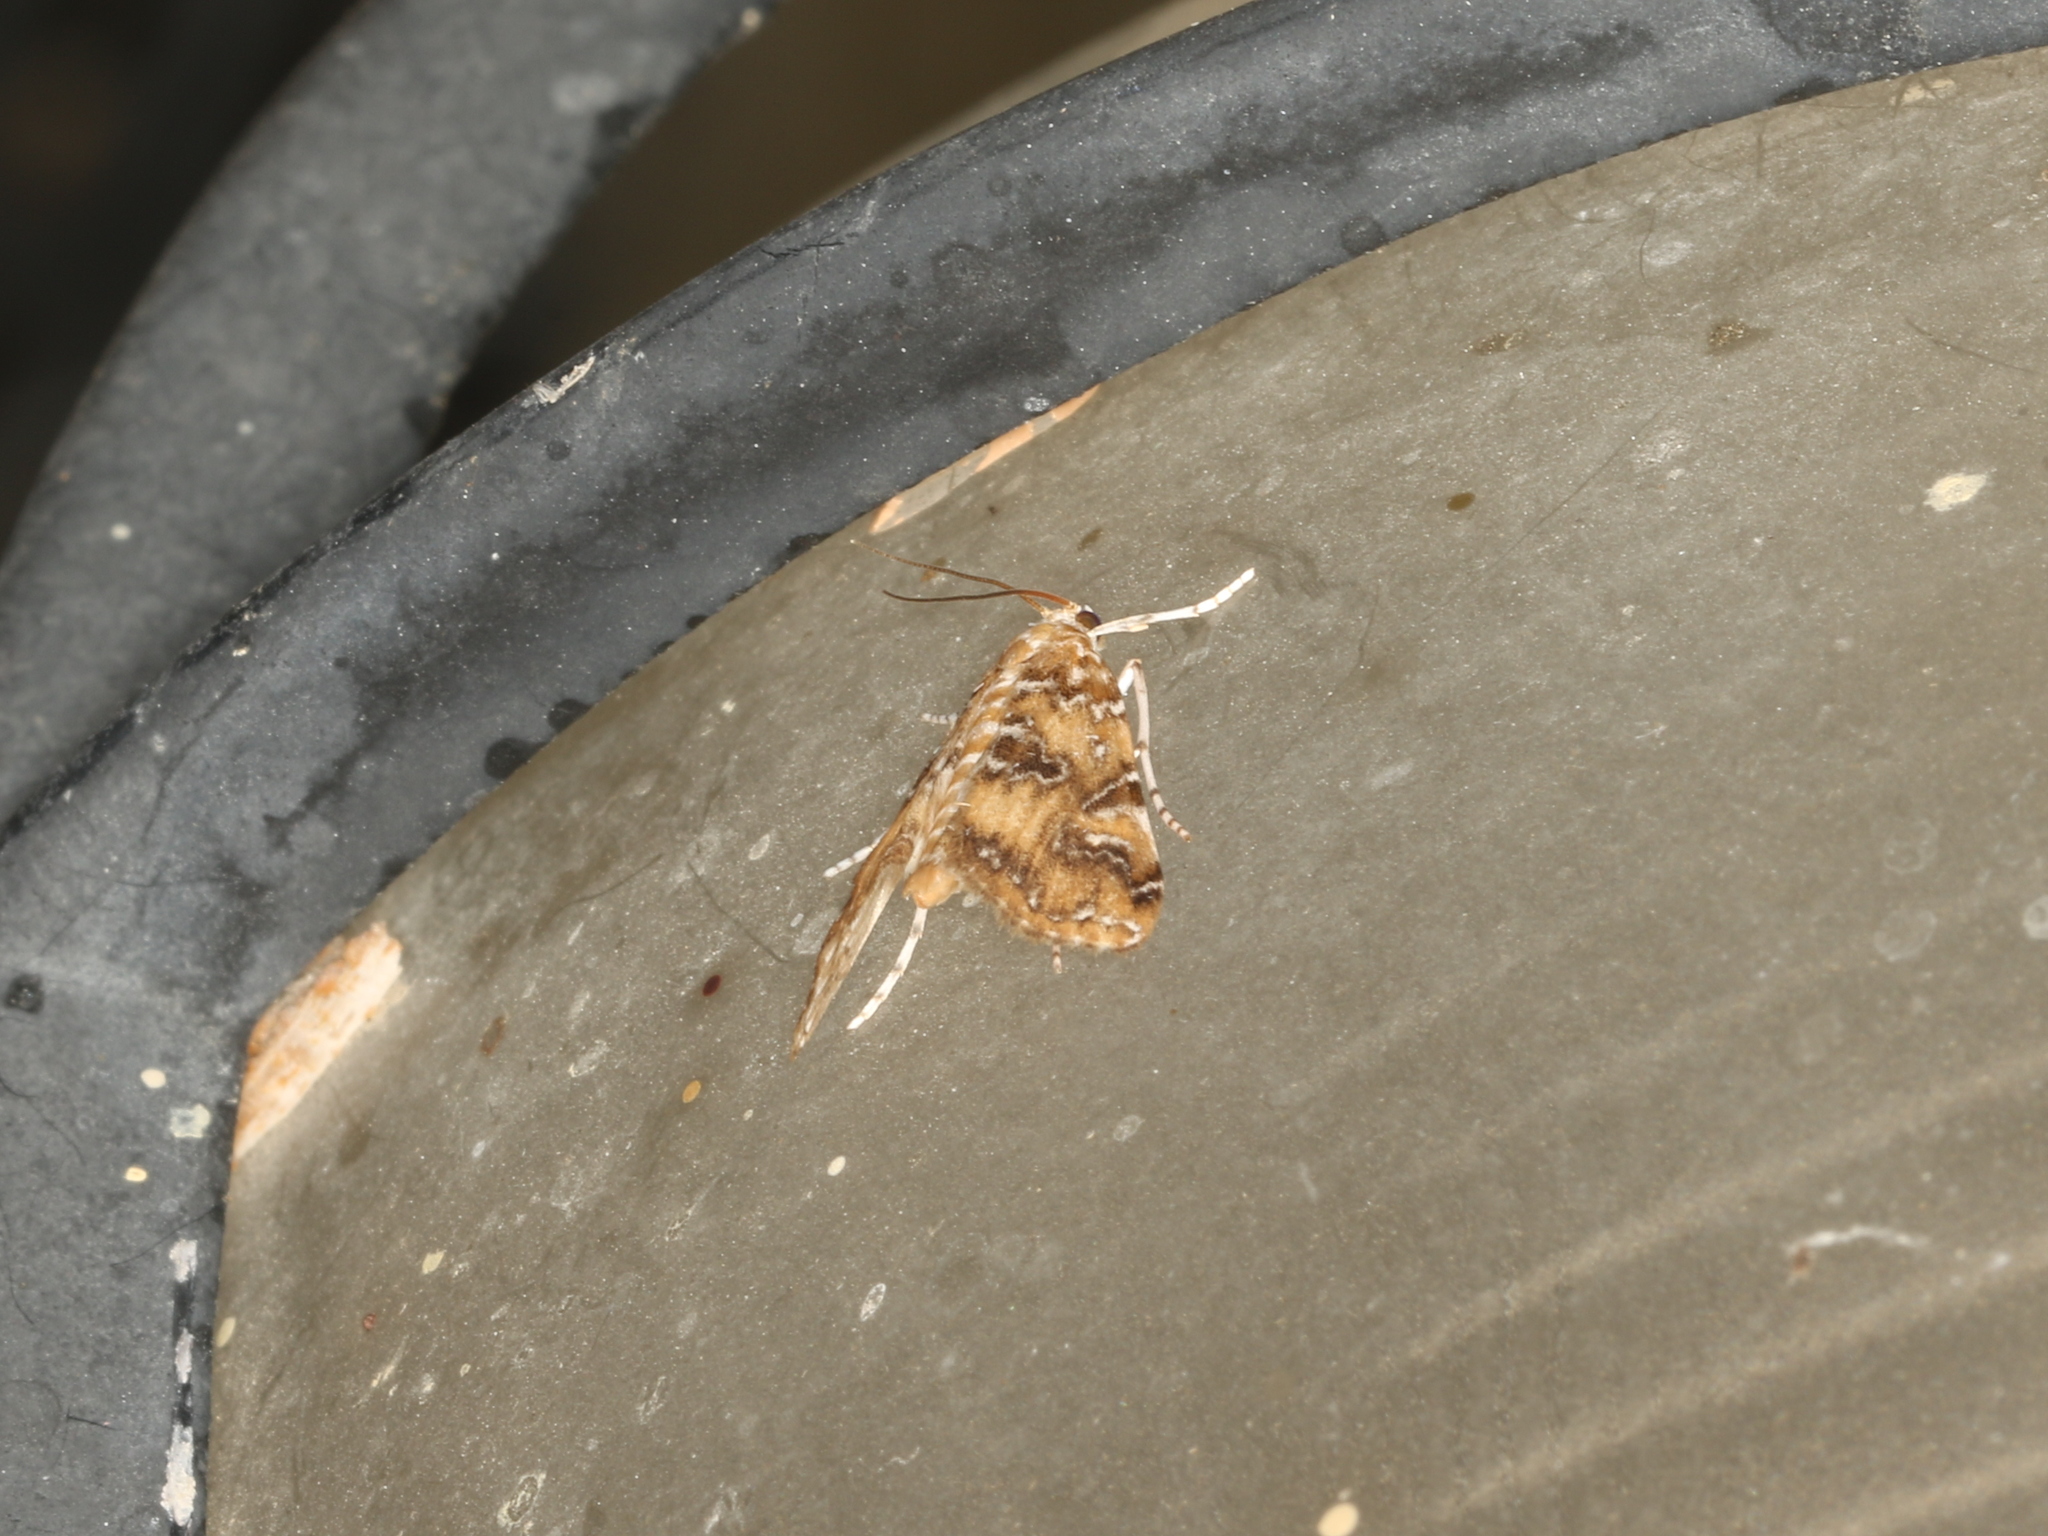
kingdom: Animalia
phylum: Arthropoda
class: Insecta
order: Lepidoptera
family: Crambidae
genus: Elophila
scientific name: Elophila gyralis
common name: Waterlily borer moth
